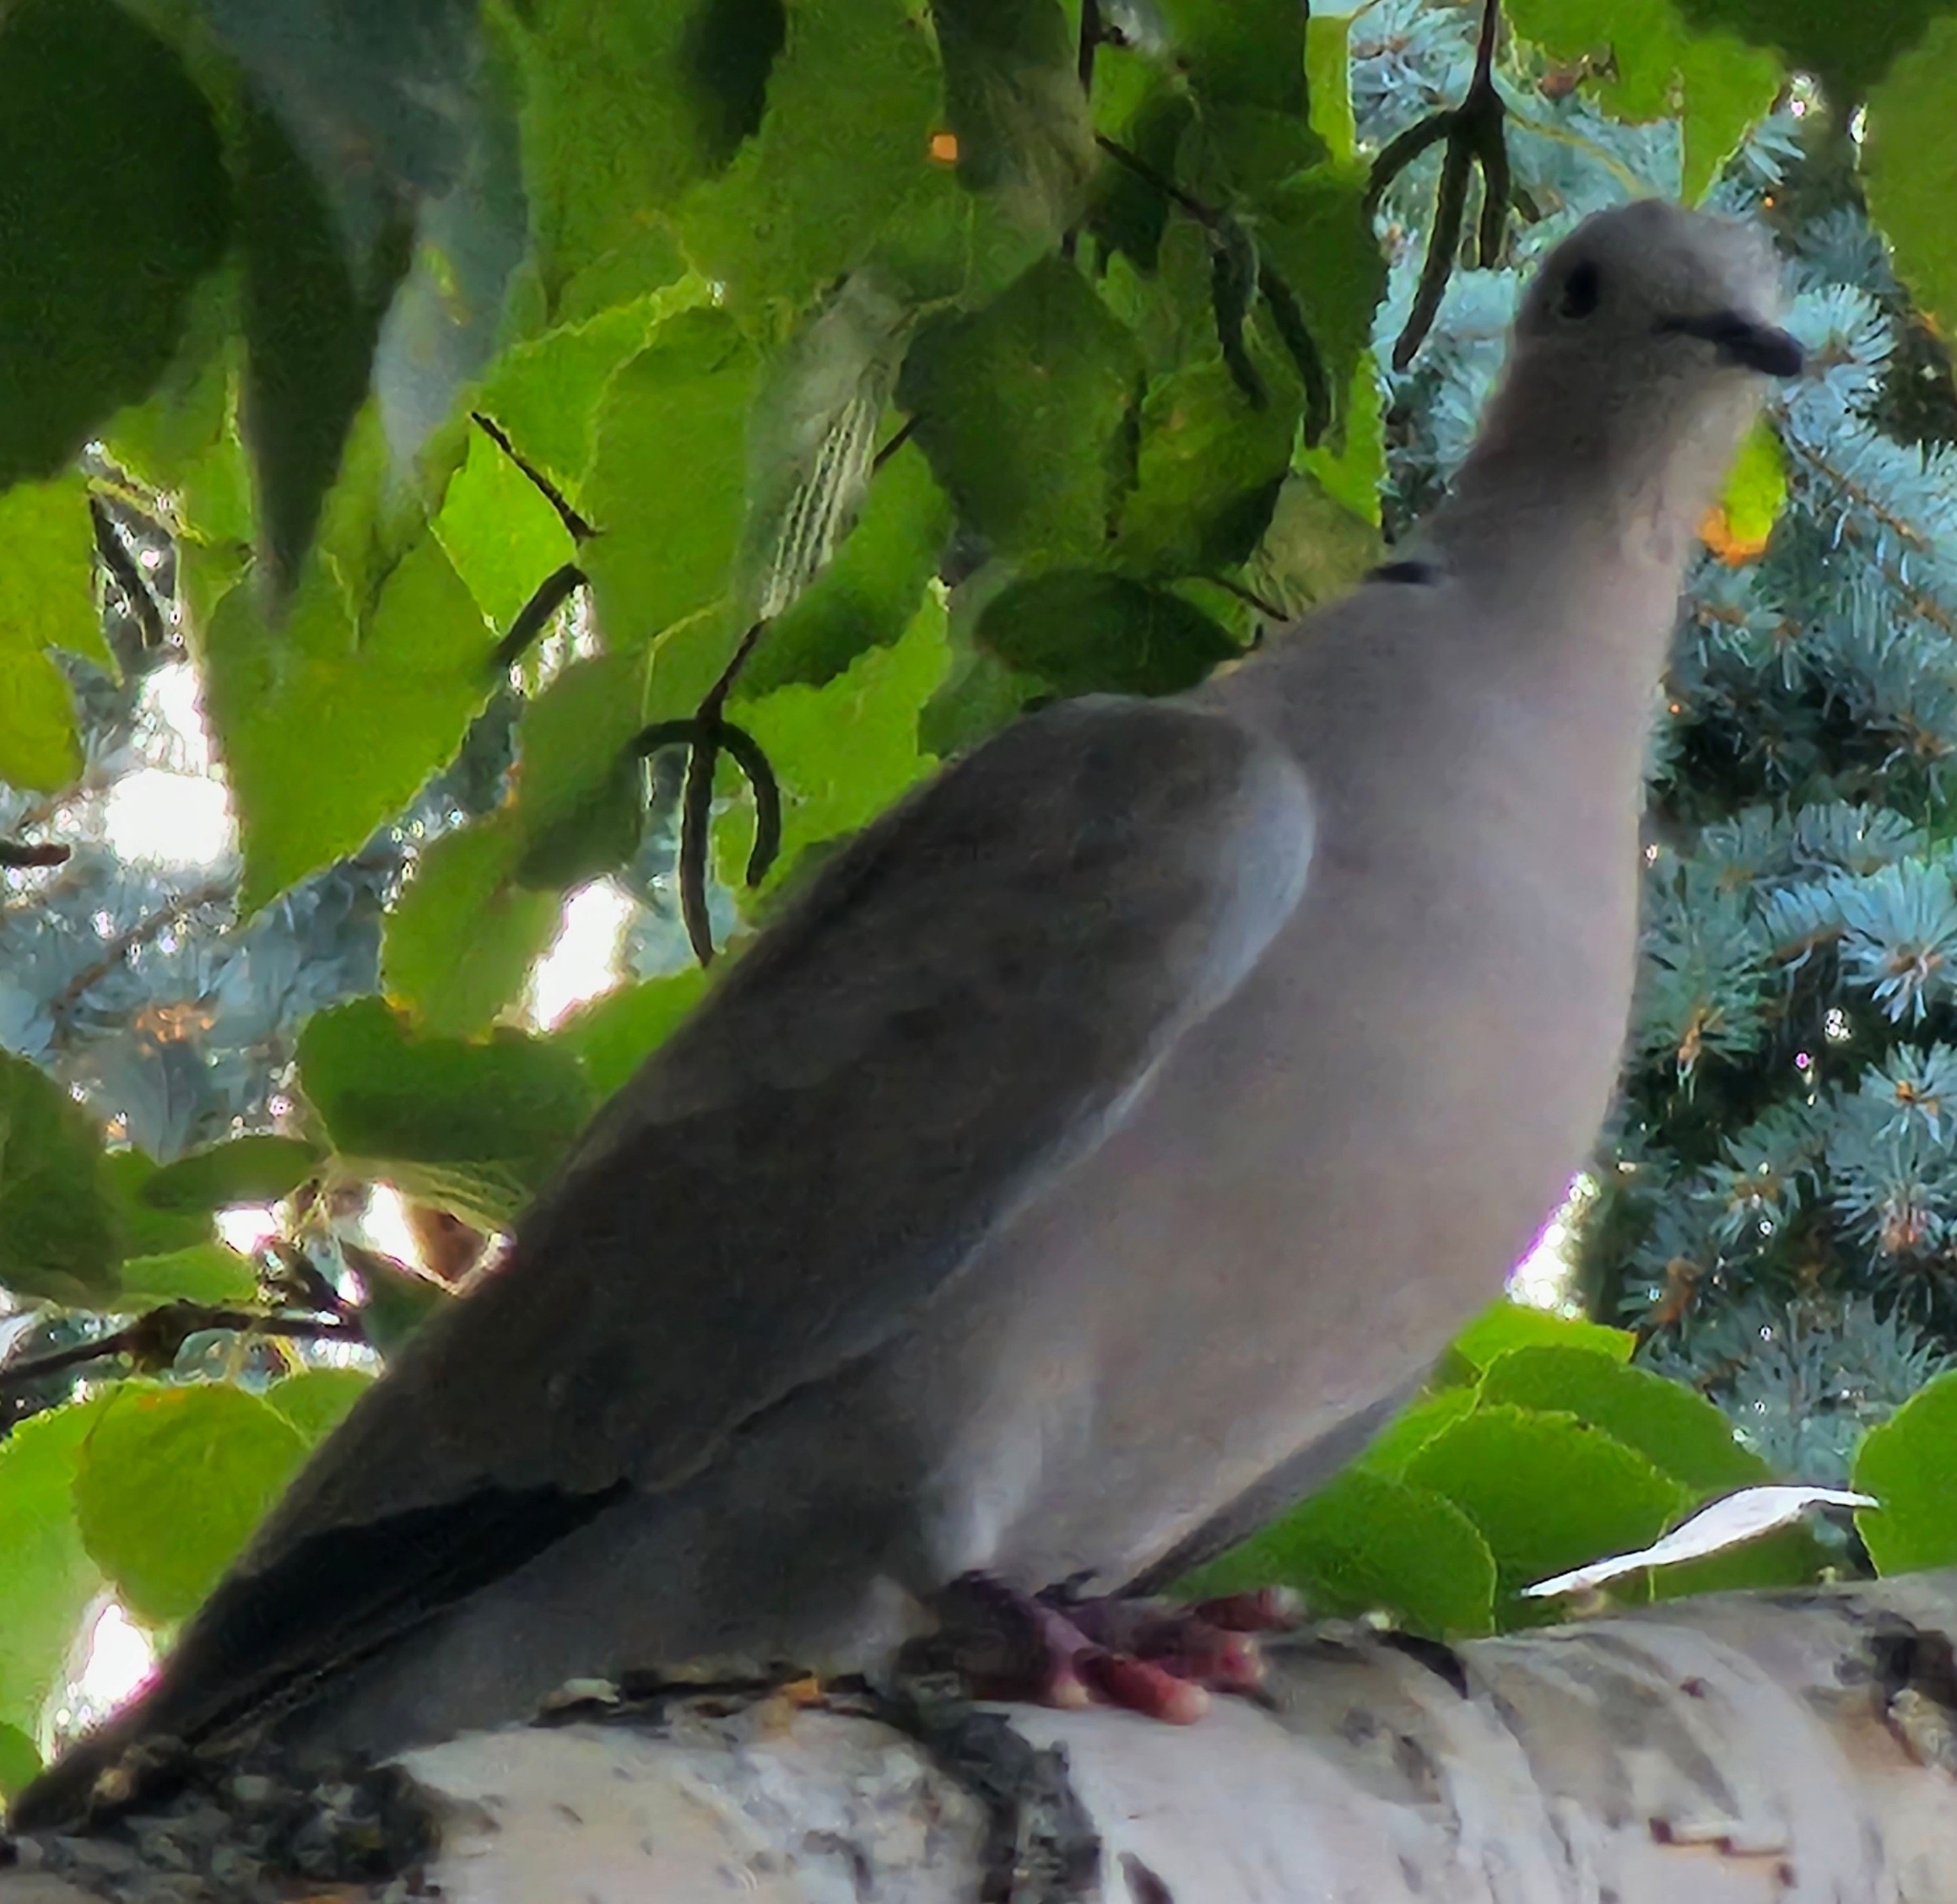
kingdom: Animalia
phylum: Chordata
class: Aves
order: Columbiformes
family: Columbidae
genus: Streptopelia
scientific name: Streptopelia decaocto
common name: Eurasian collared dove
